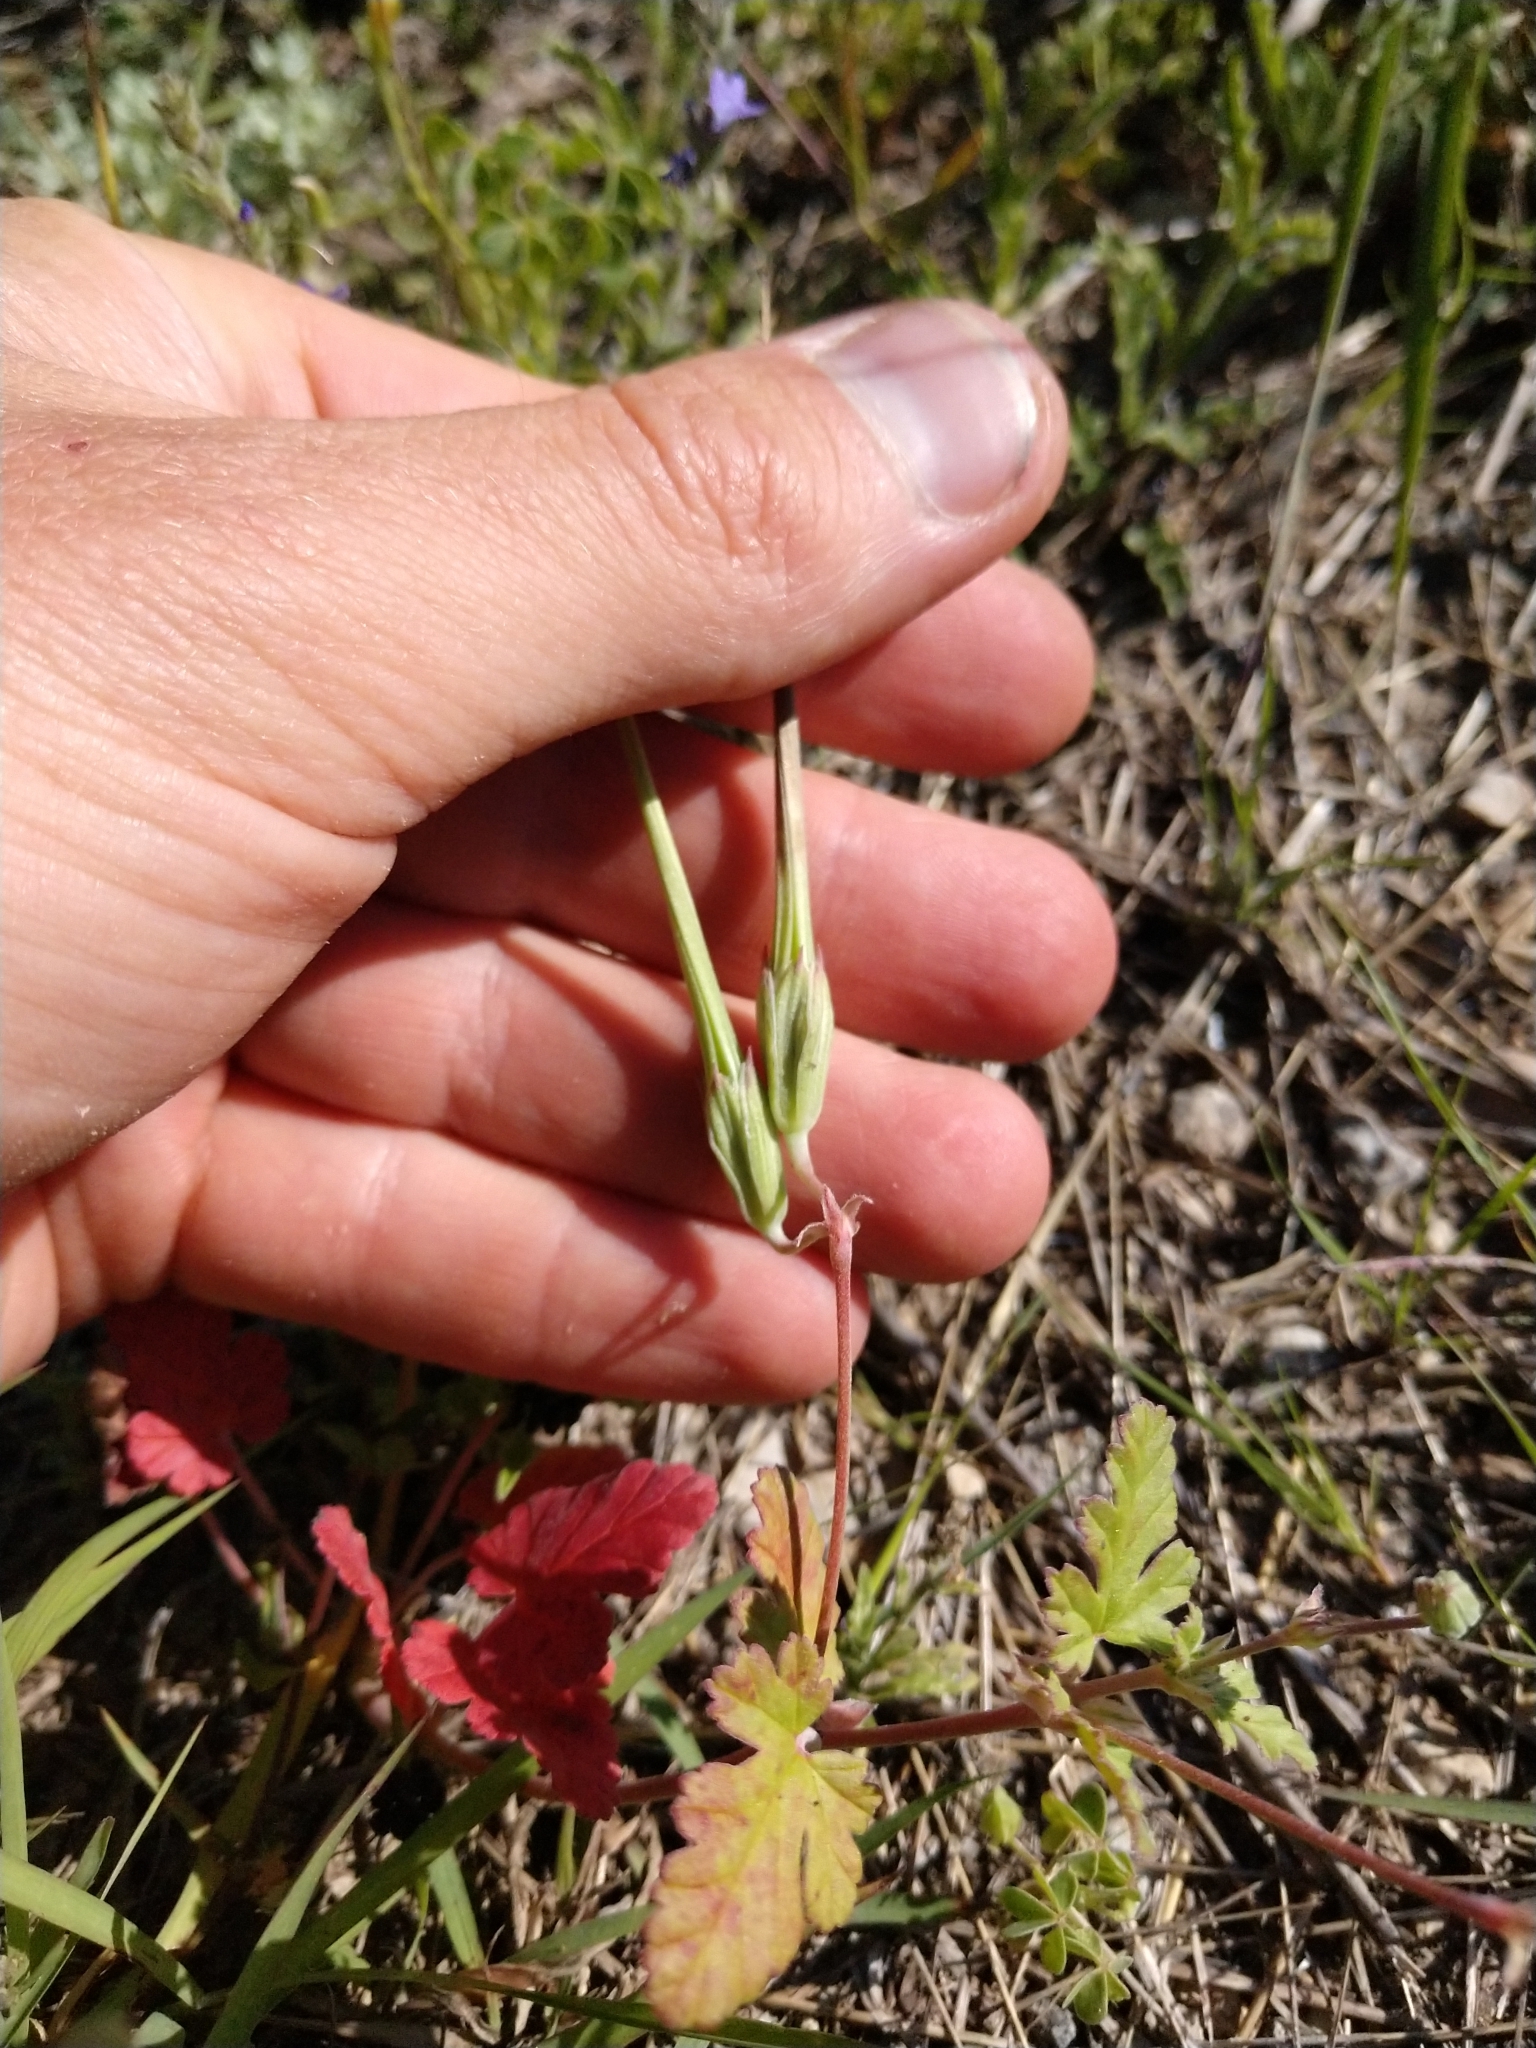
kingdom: Plantae
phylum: Tracheophyta
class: Magnoliopsida
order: Geraniales
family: Geraniaceae
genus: Erodium
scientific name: Erodium texanum
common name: Texas stork's-bill
